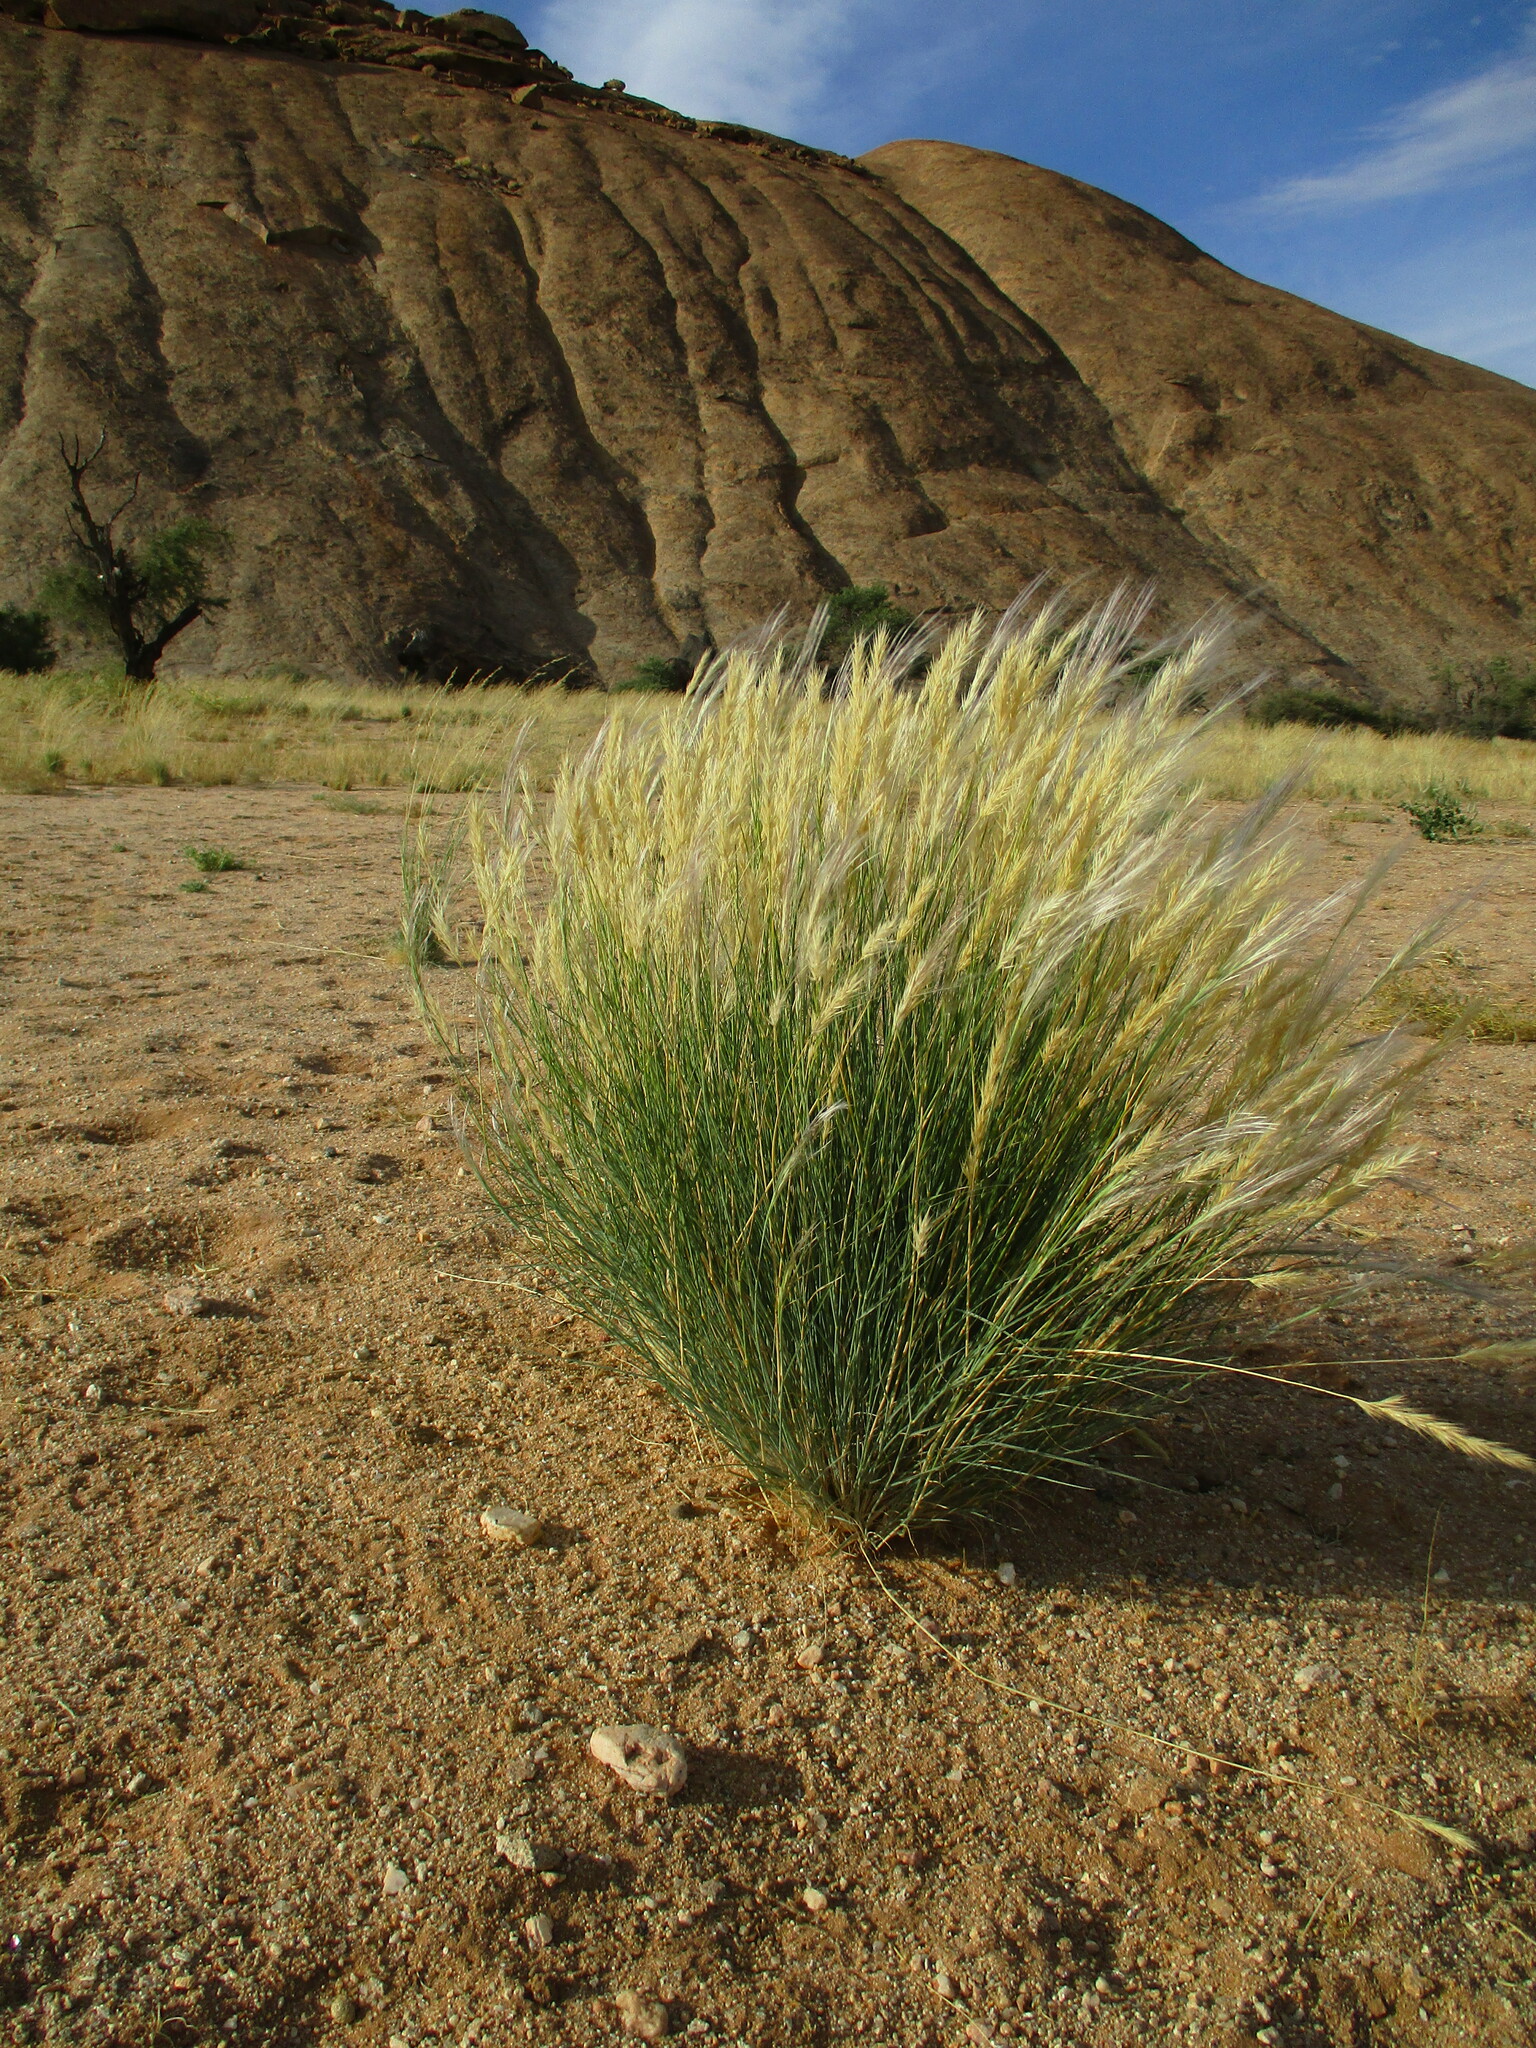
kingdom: Plantae
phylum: Tracheophyta
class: Liliopsida
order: Poales
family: Poaceae
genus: Stipagrostis
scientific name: Stipagrostis uniplumis
